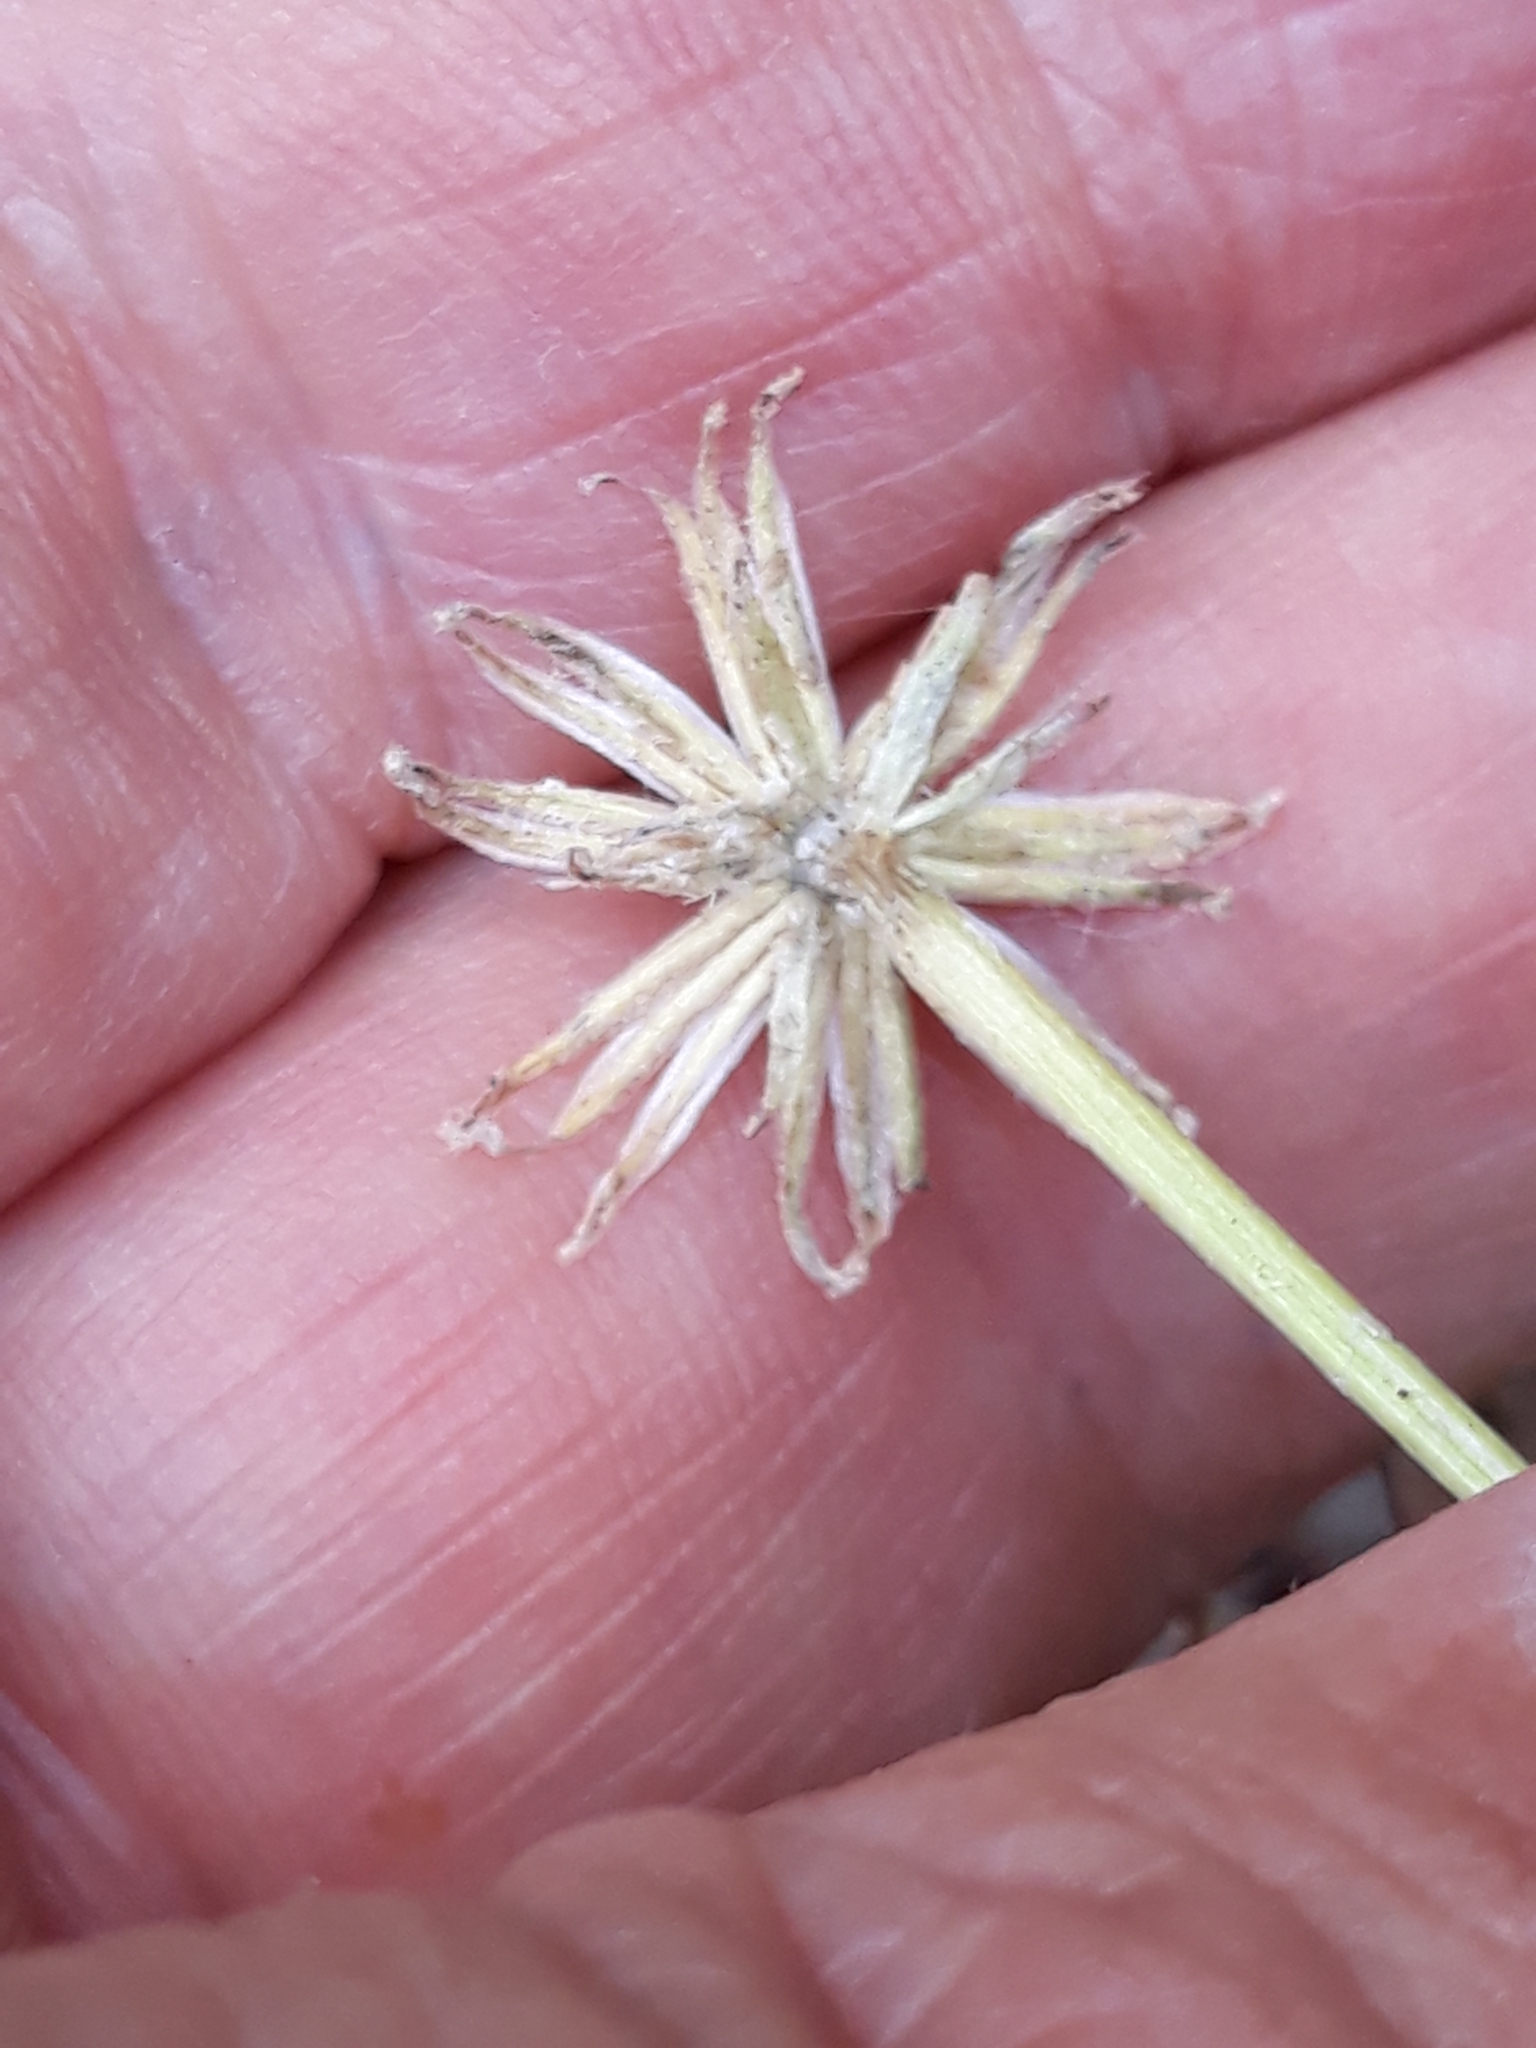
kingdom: Plantae
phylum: Tracheophyta
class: Magnoliopsida
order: Asterales
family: Asteraceae
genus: Senecio
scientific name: Senecio perralderianus
